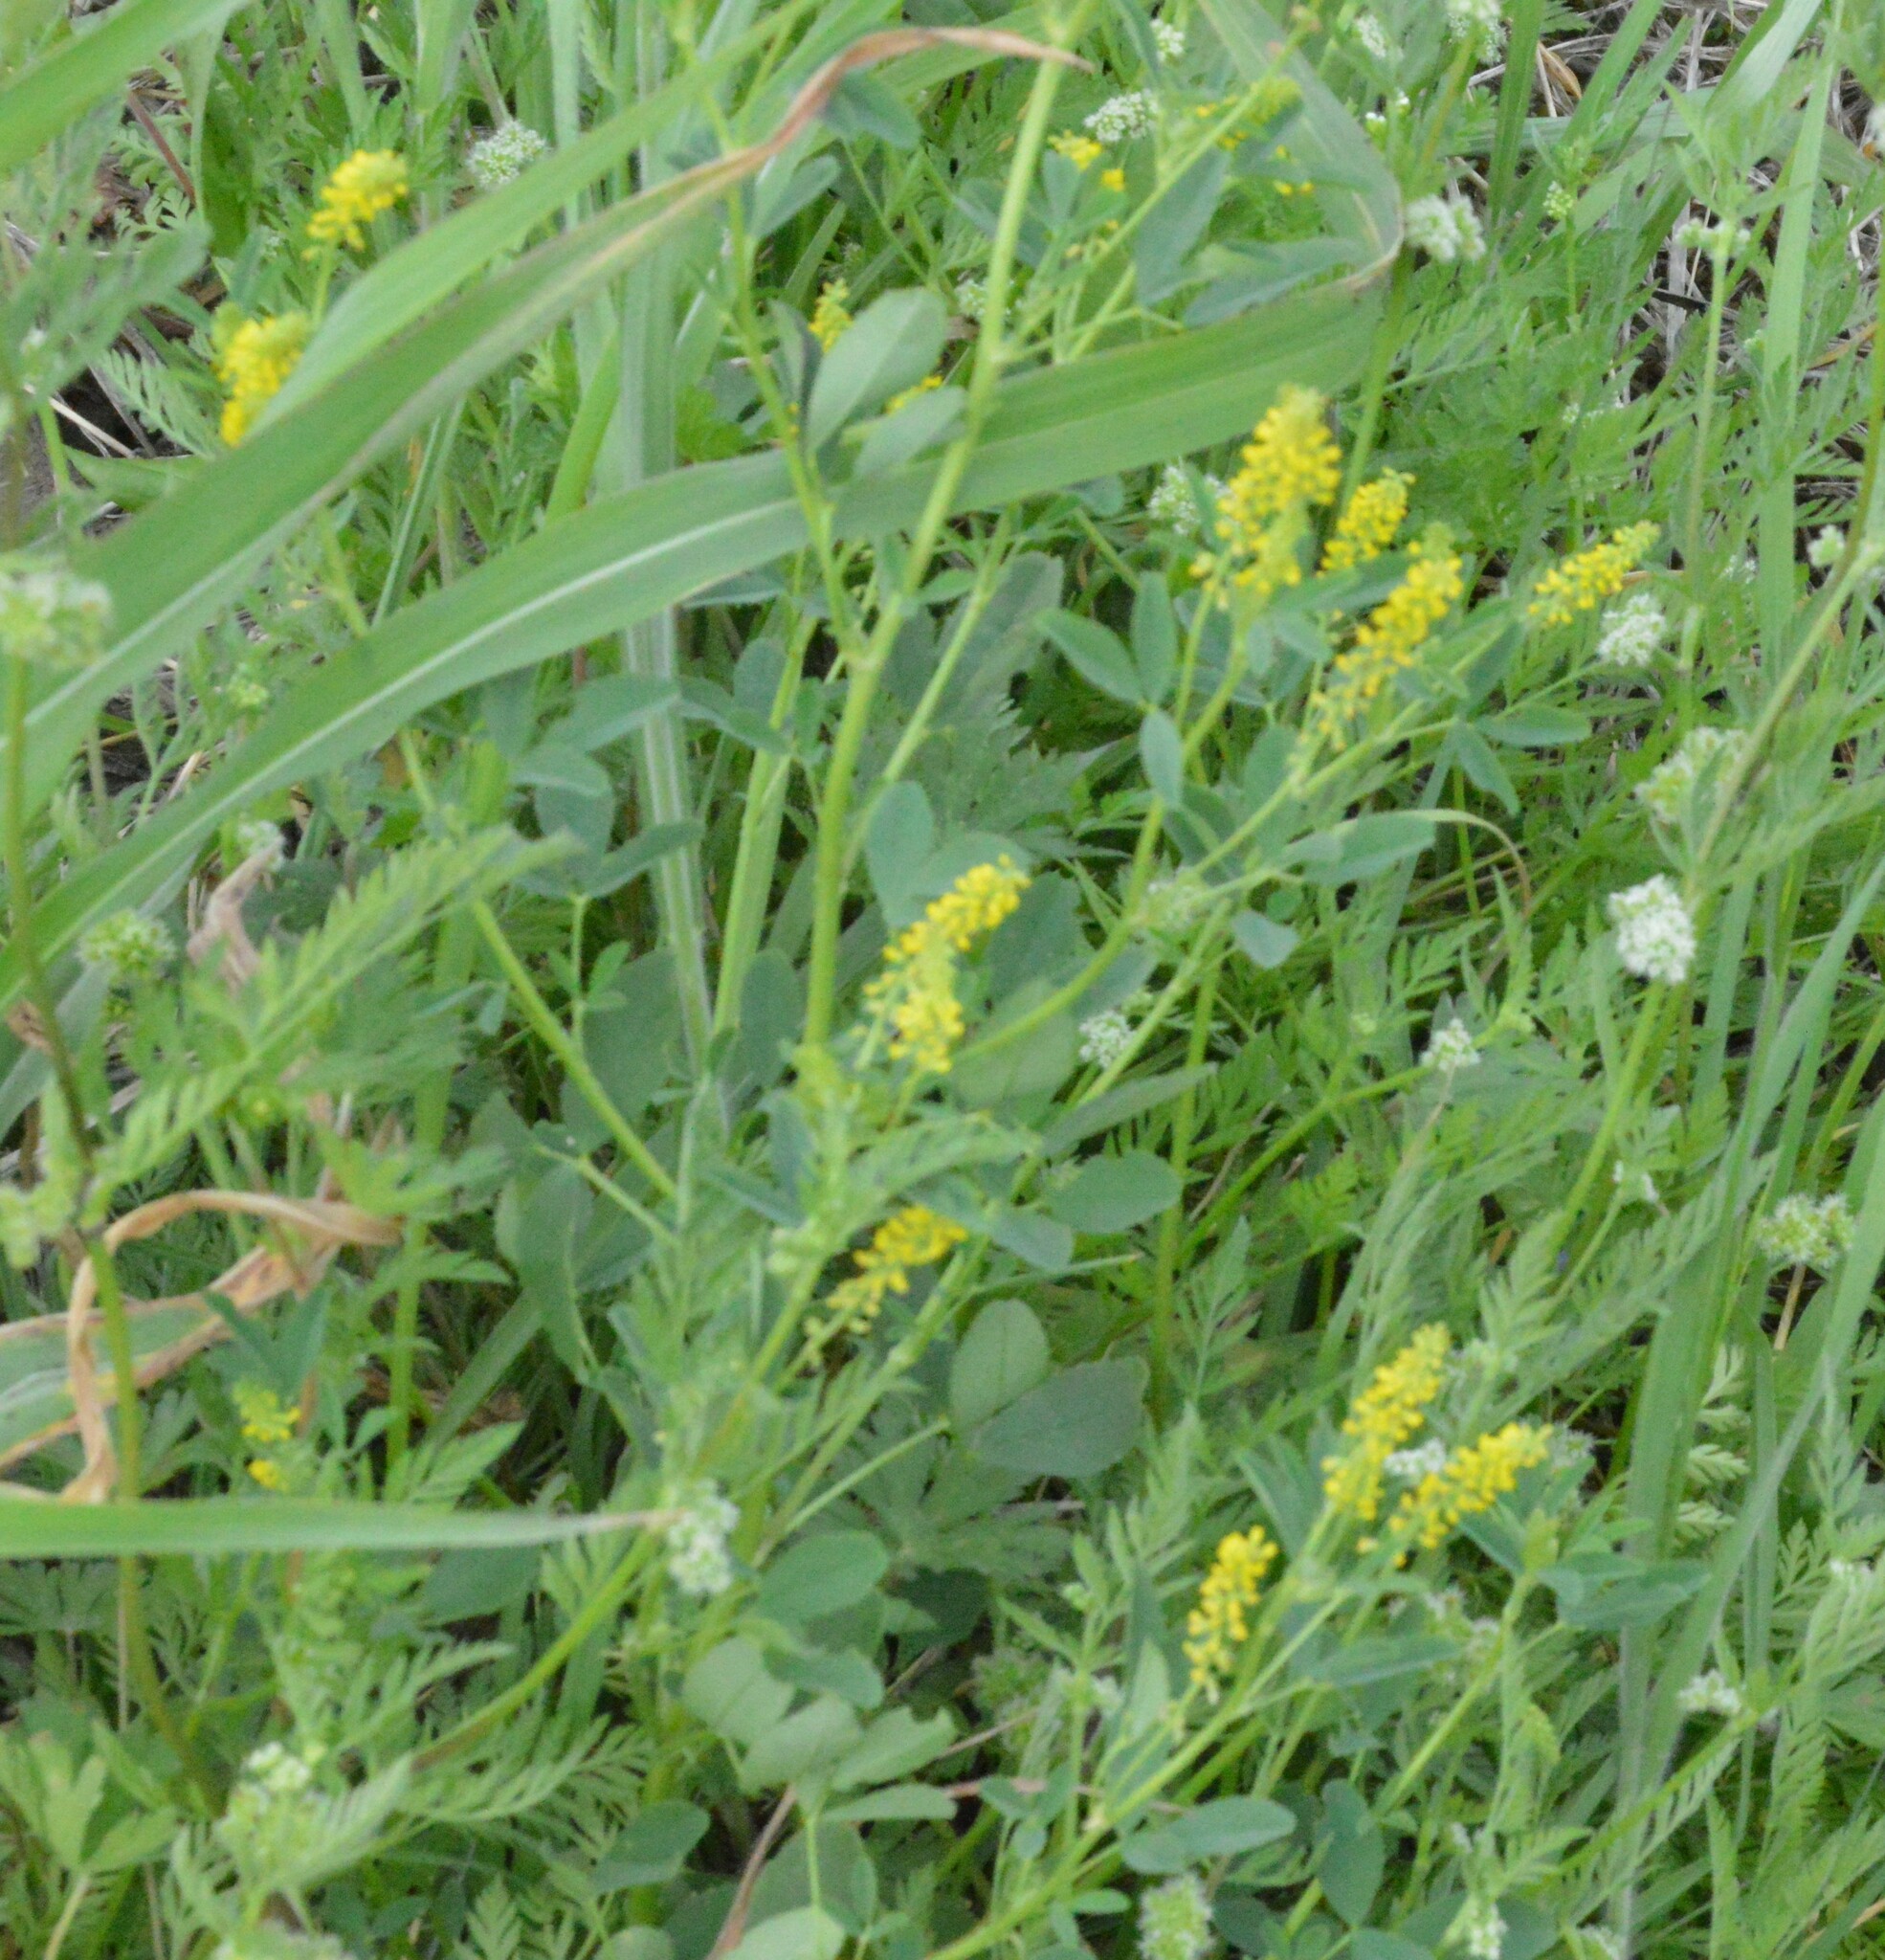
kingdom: Plantae
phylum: Tracheophyta
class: Magnoliopsida
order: Fabales
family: Fabaceae
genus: Melilotus
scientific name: Melilotus indicus
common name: Small melilot
